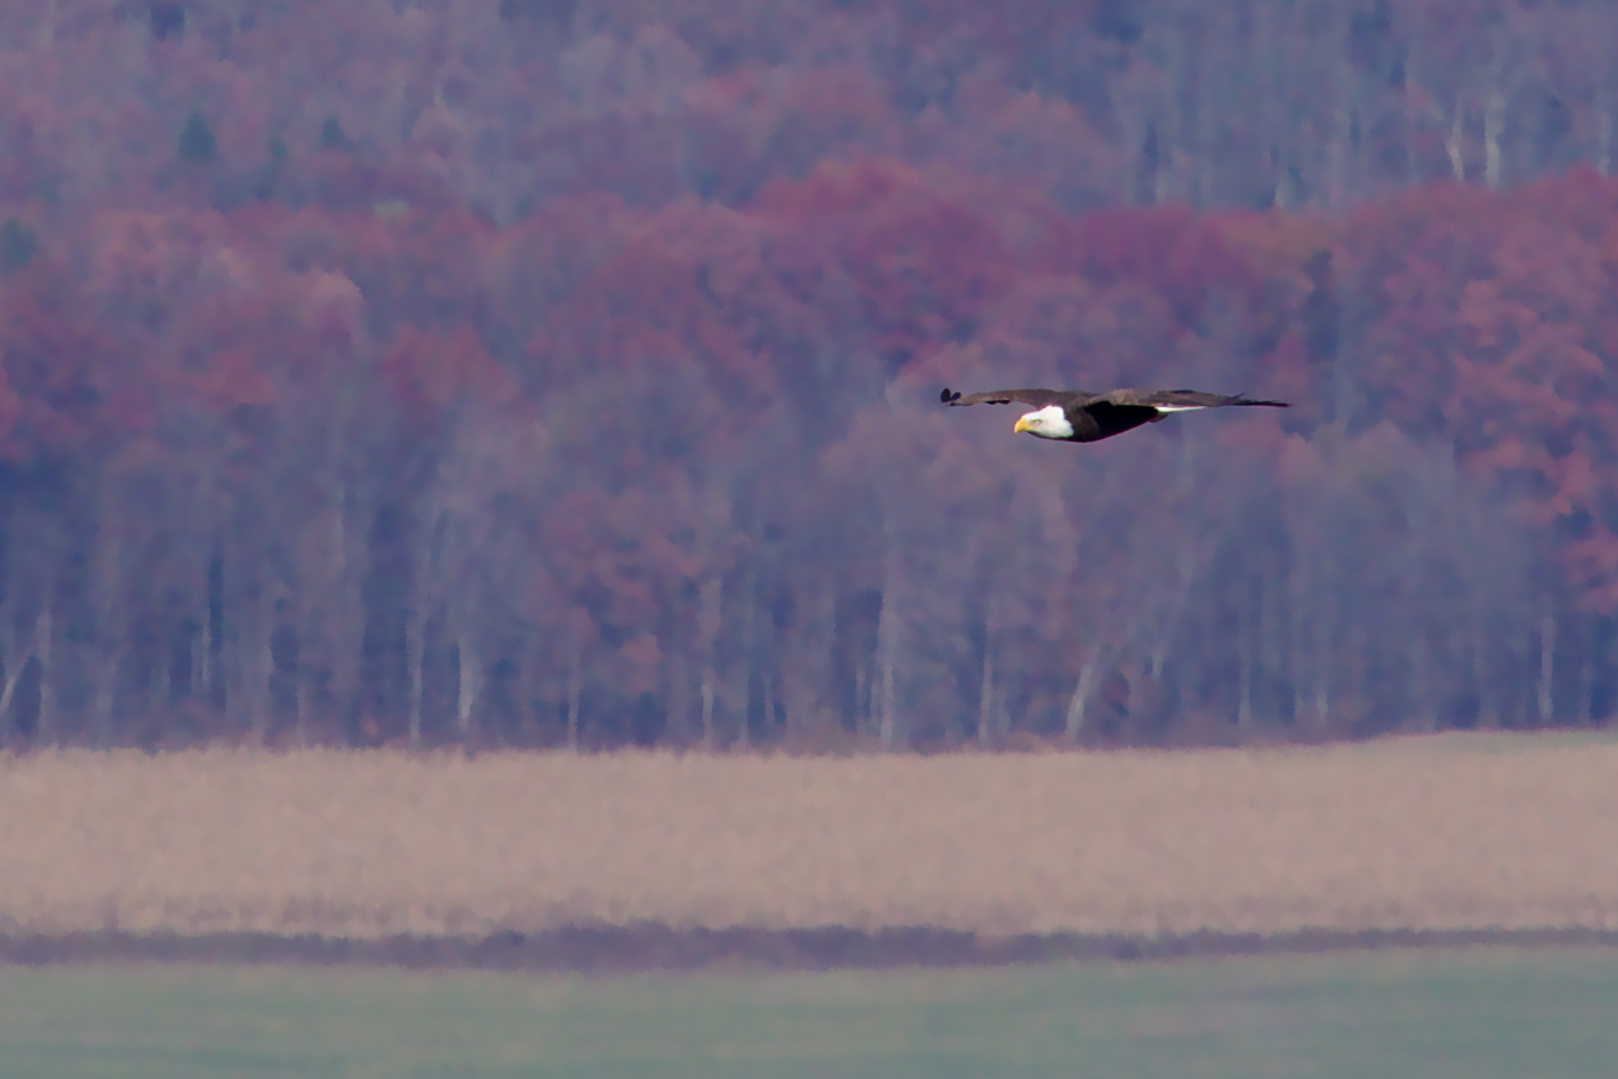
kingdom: Animalia
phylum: Chordata
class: Aves
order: Accipitriformes
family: Accipitridae
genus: Haliaeetus
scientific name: Haliaeetus leucocephalus
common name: Bald eagle
